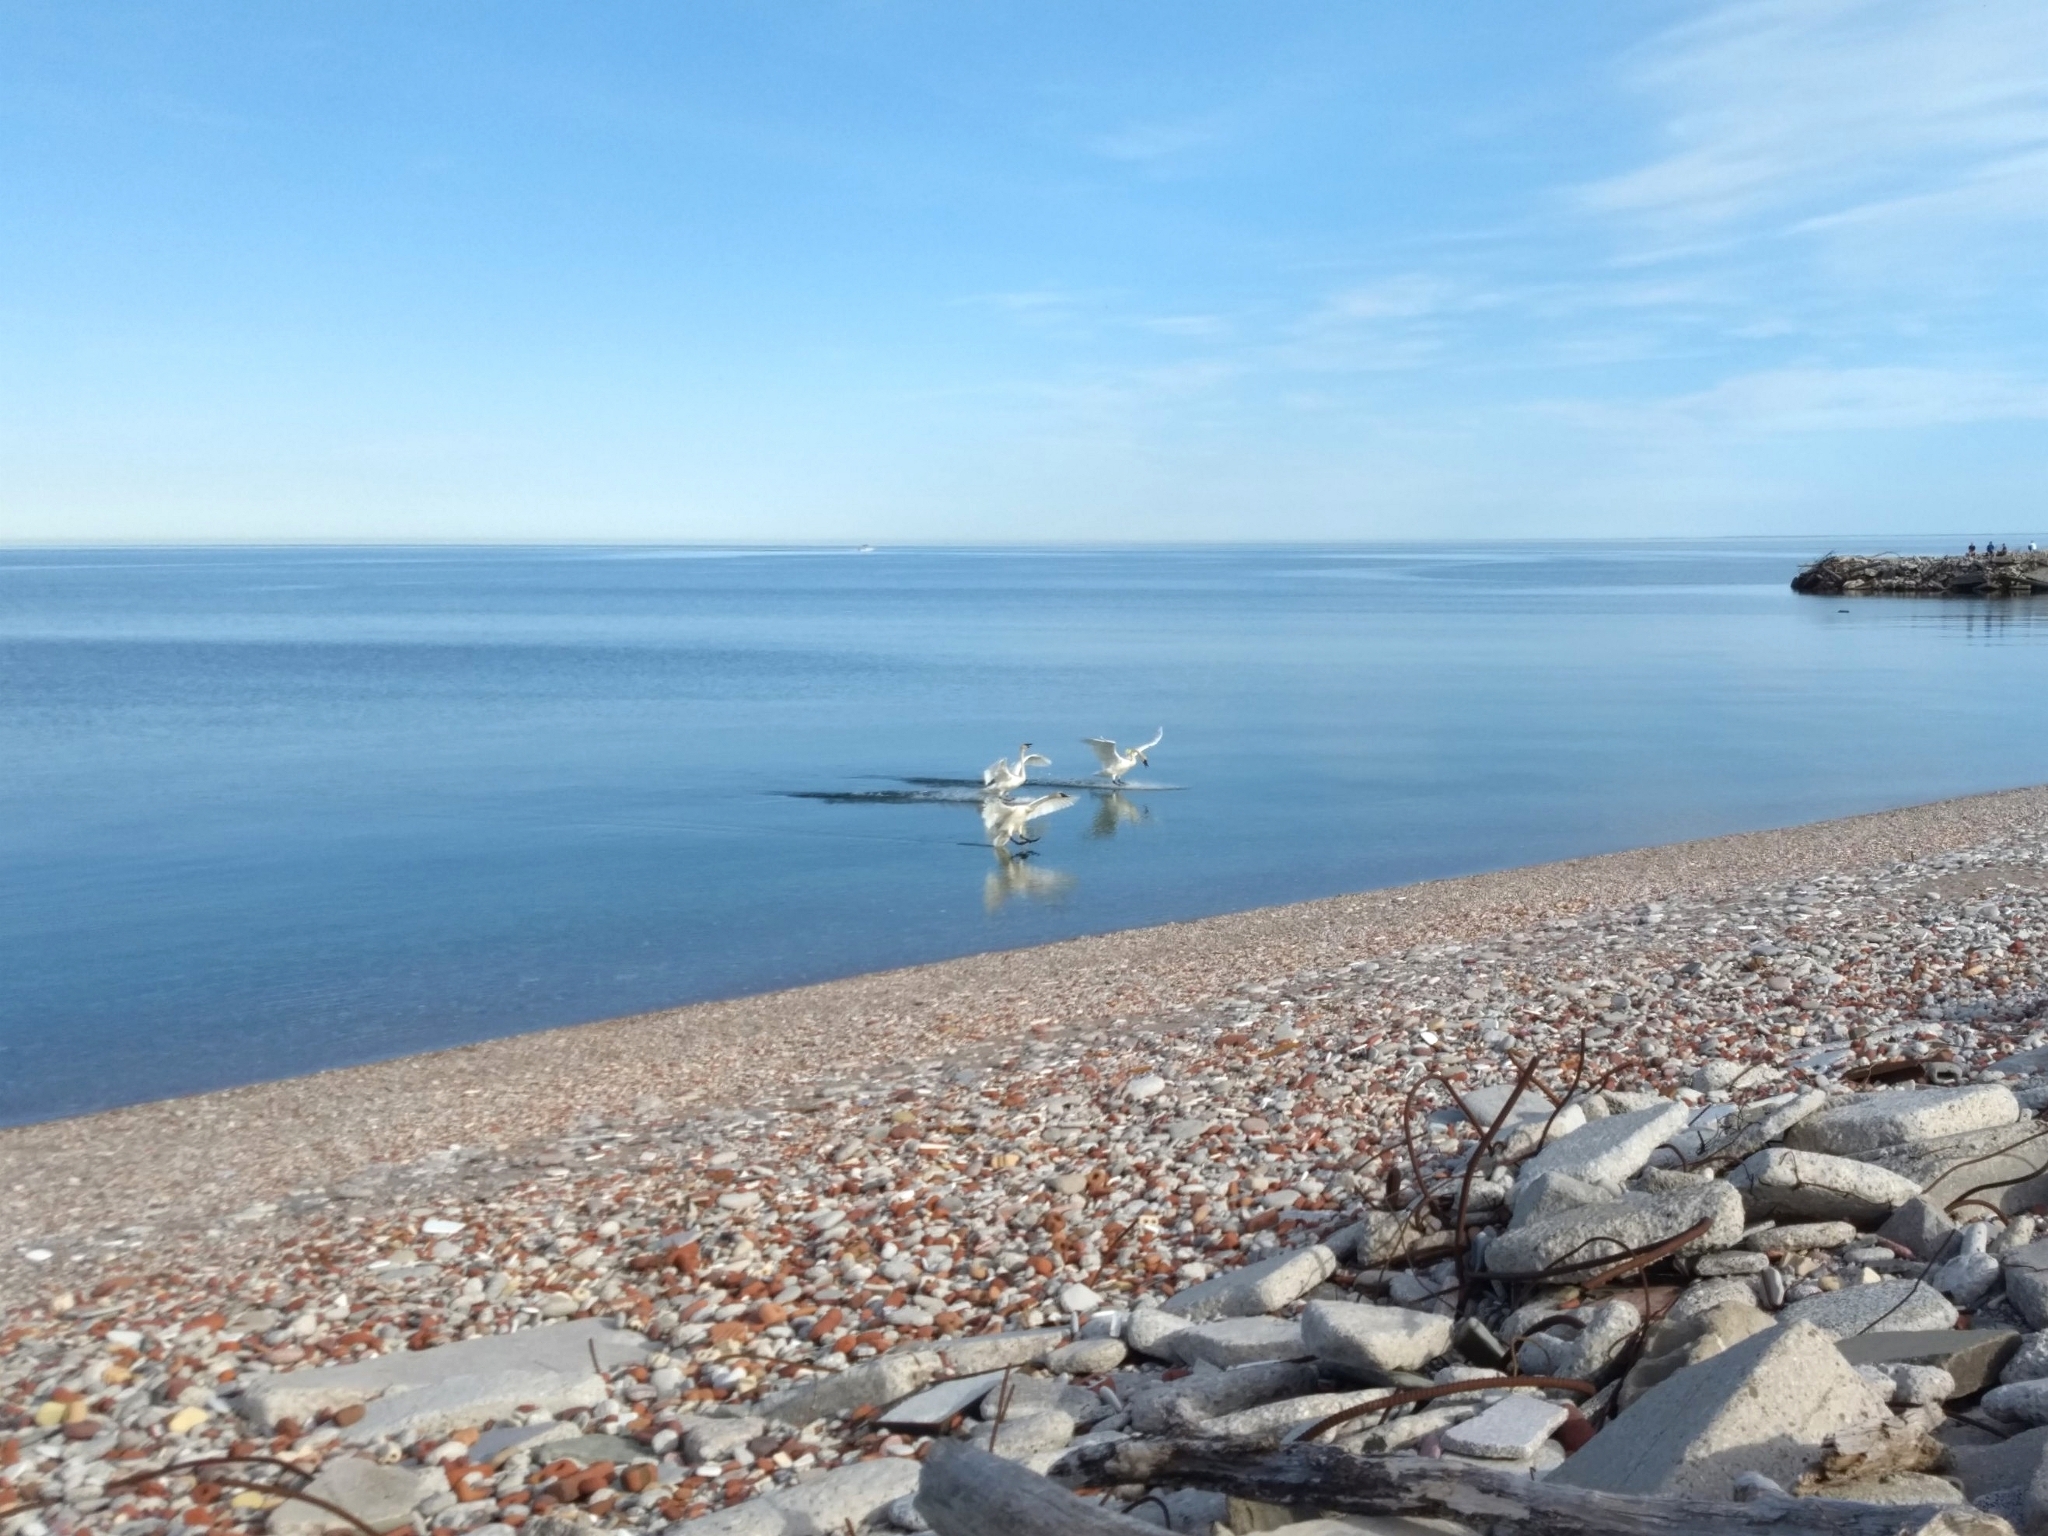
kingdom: Animalia
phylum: Chordata
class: Aves
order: Anseriformes
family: Anatidae
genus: Cygnus
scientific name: Cygnus buccinator
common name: Trumpeter swan
